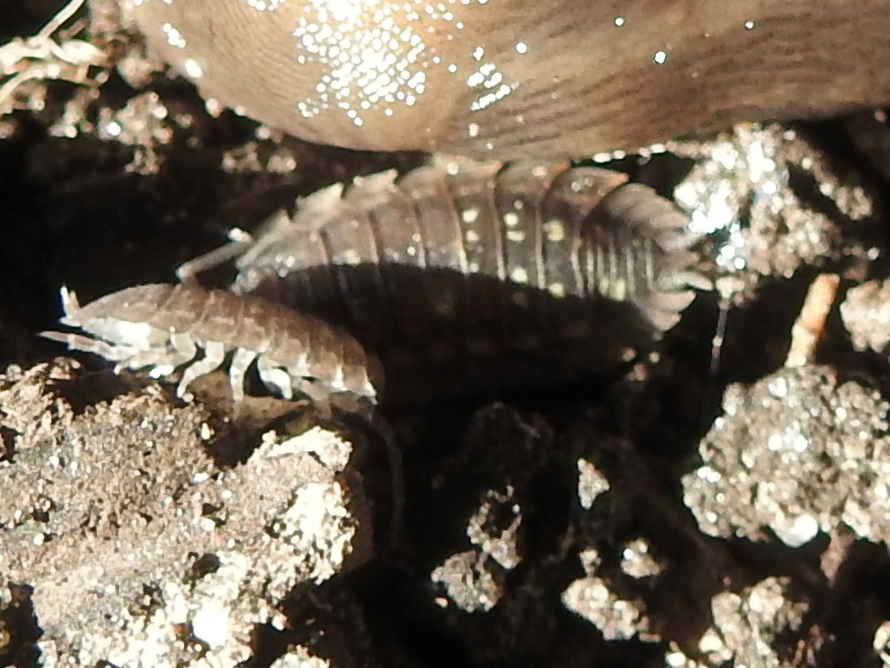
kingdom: Animalia
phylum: Arthropoda
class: Malacostraca
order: Isopoda
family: Oniscidae
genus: Oniscus
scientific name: Oniscus asellus
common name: Common shiny woodlouse
